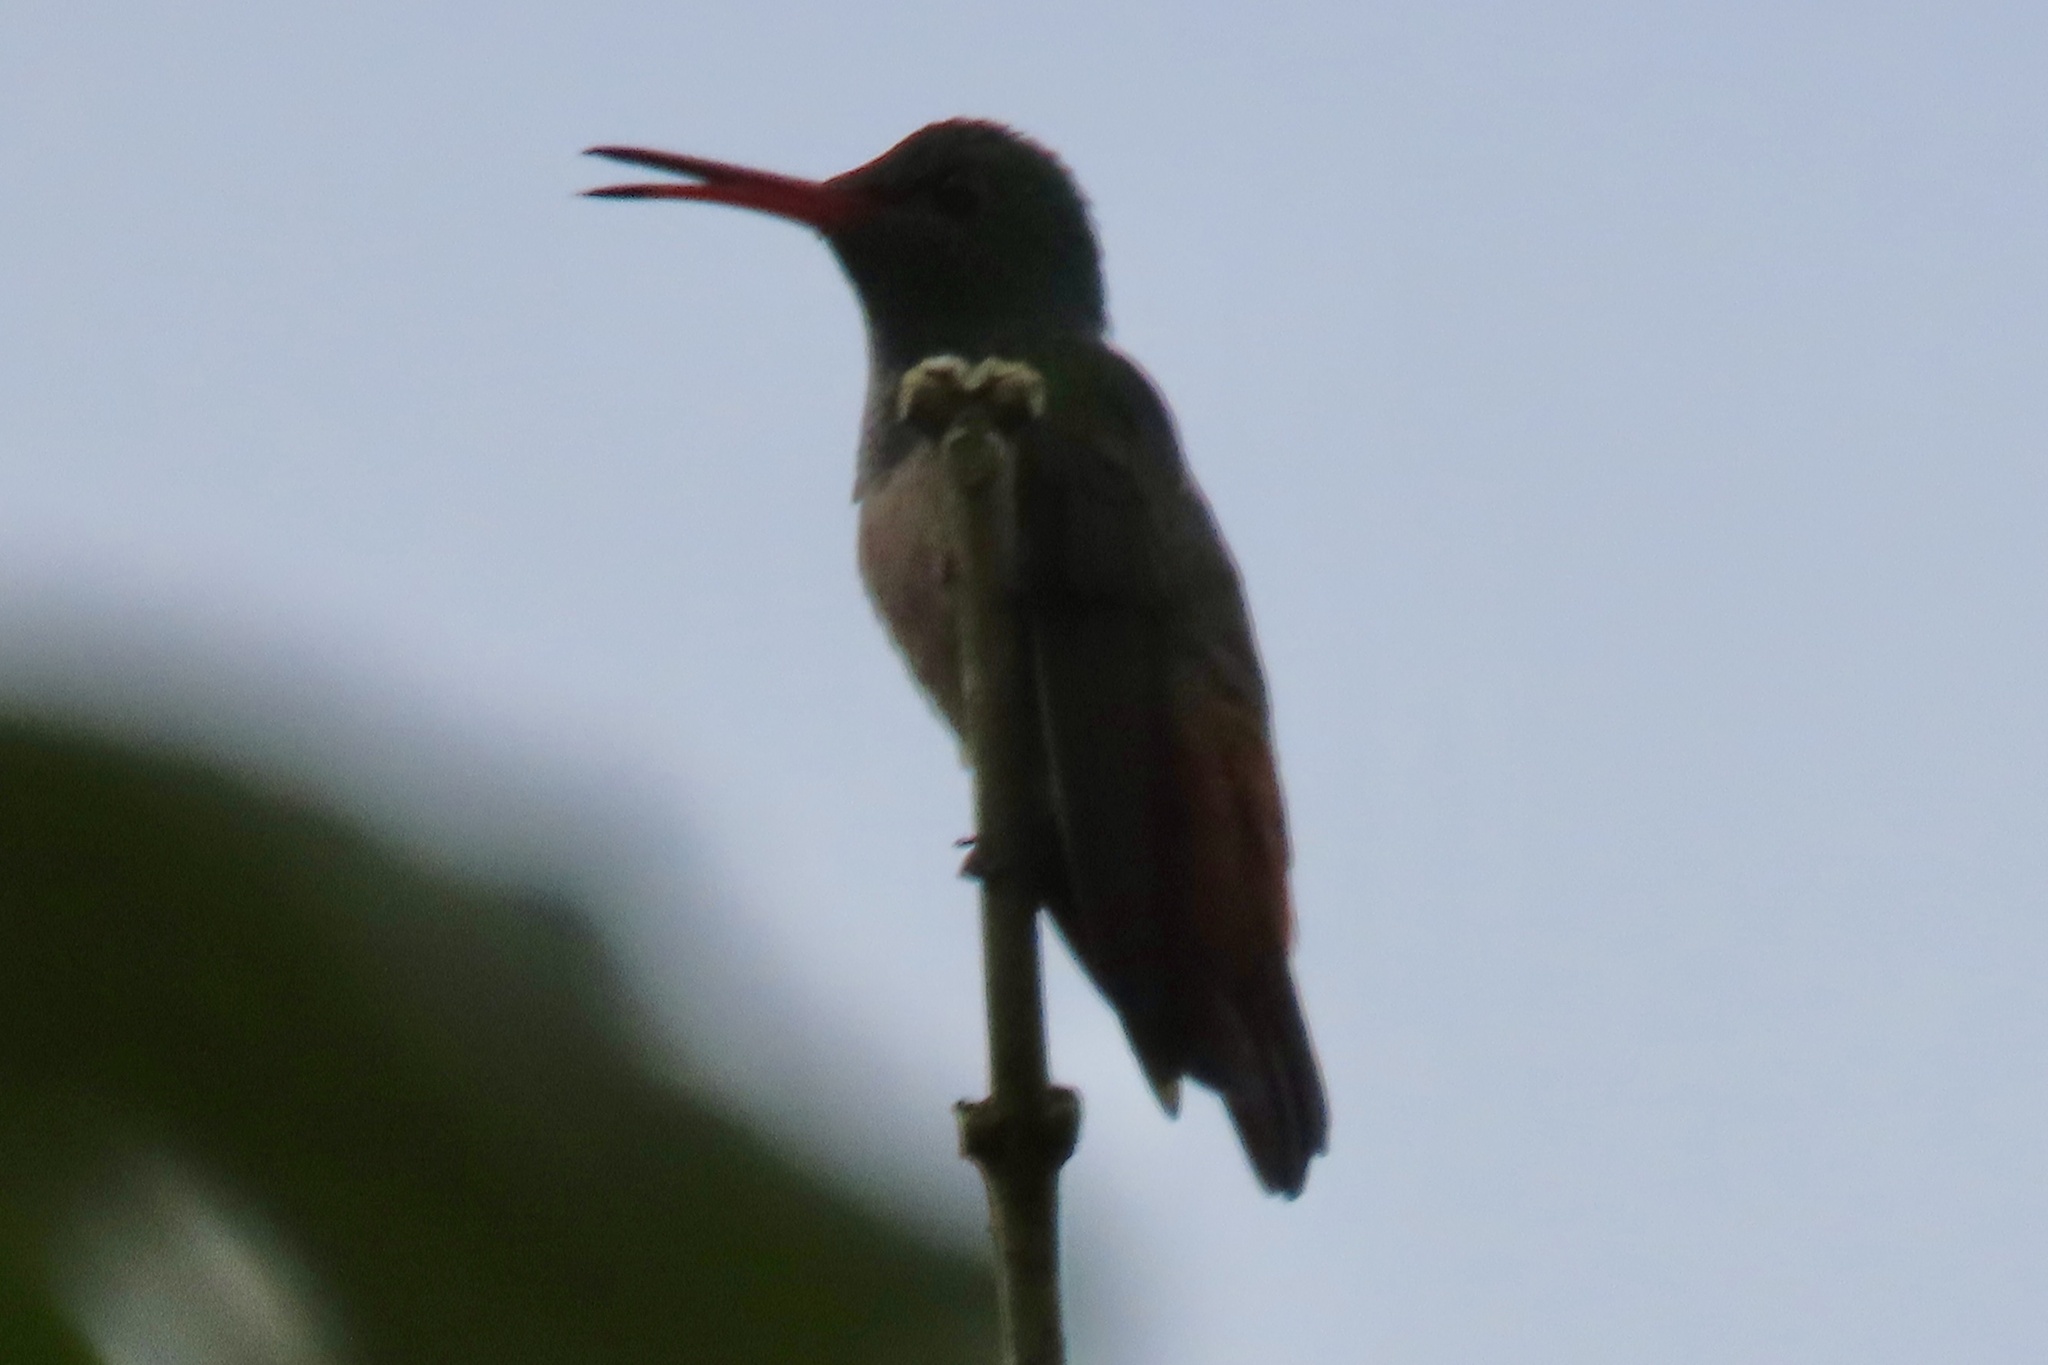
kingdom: Animalia
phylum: Chordata
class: Aves
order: Apodiformes
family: Trochilidae
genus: Amazilia
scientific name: Amazilia tzacatl
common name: Rufous-tailed hummingbird
